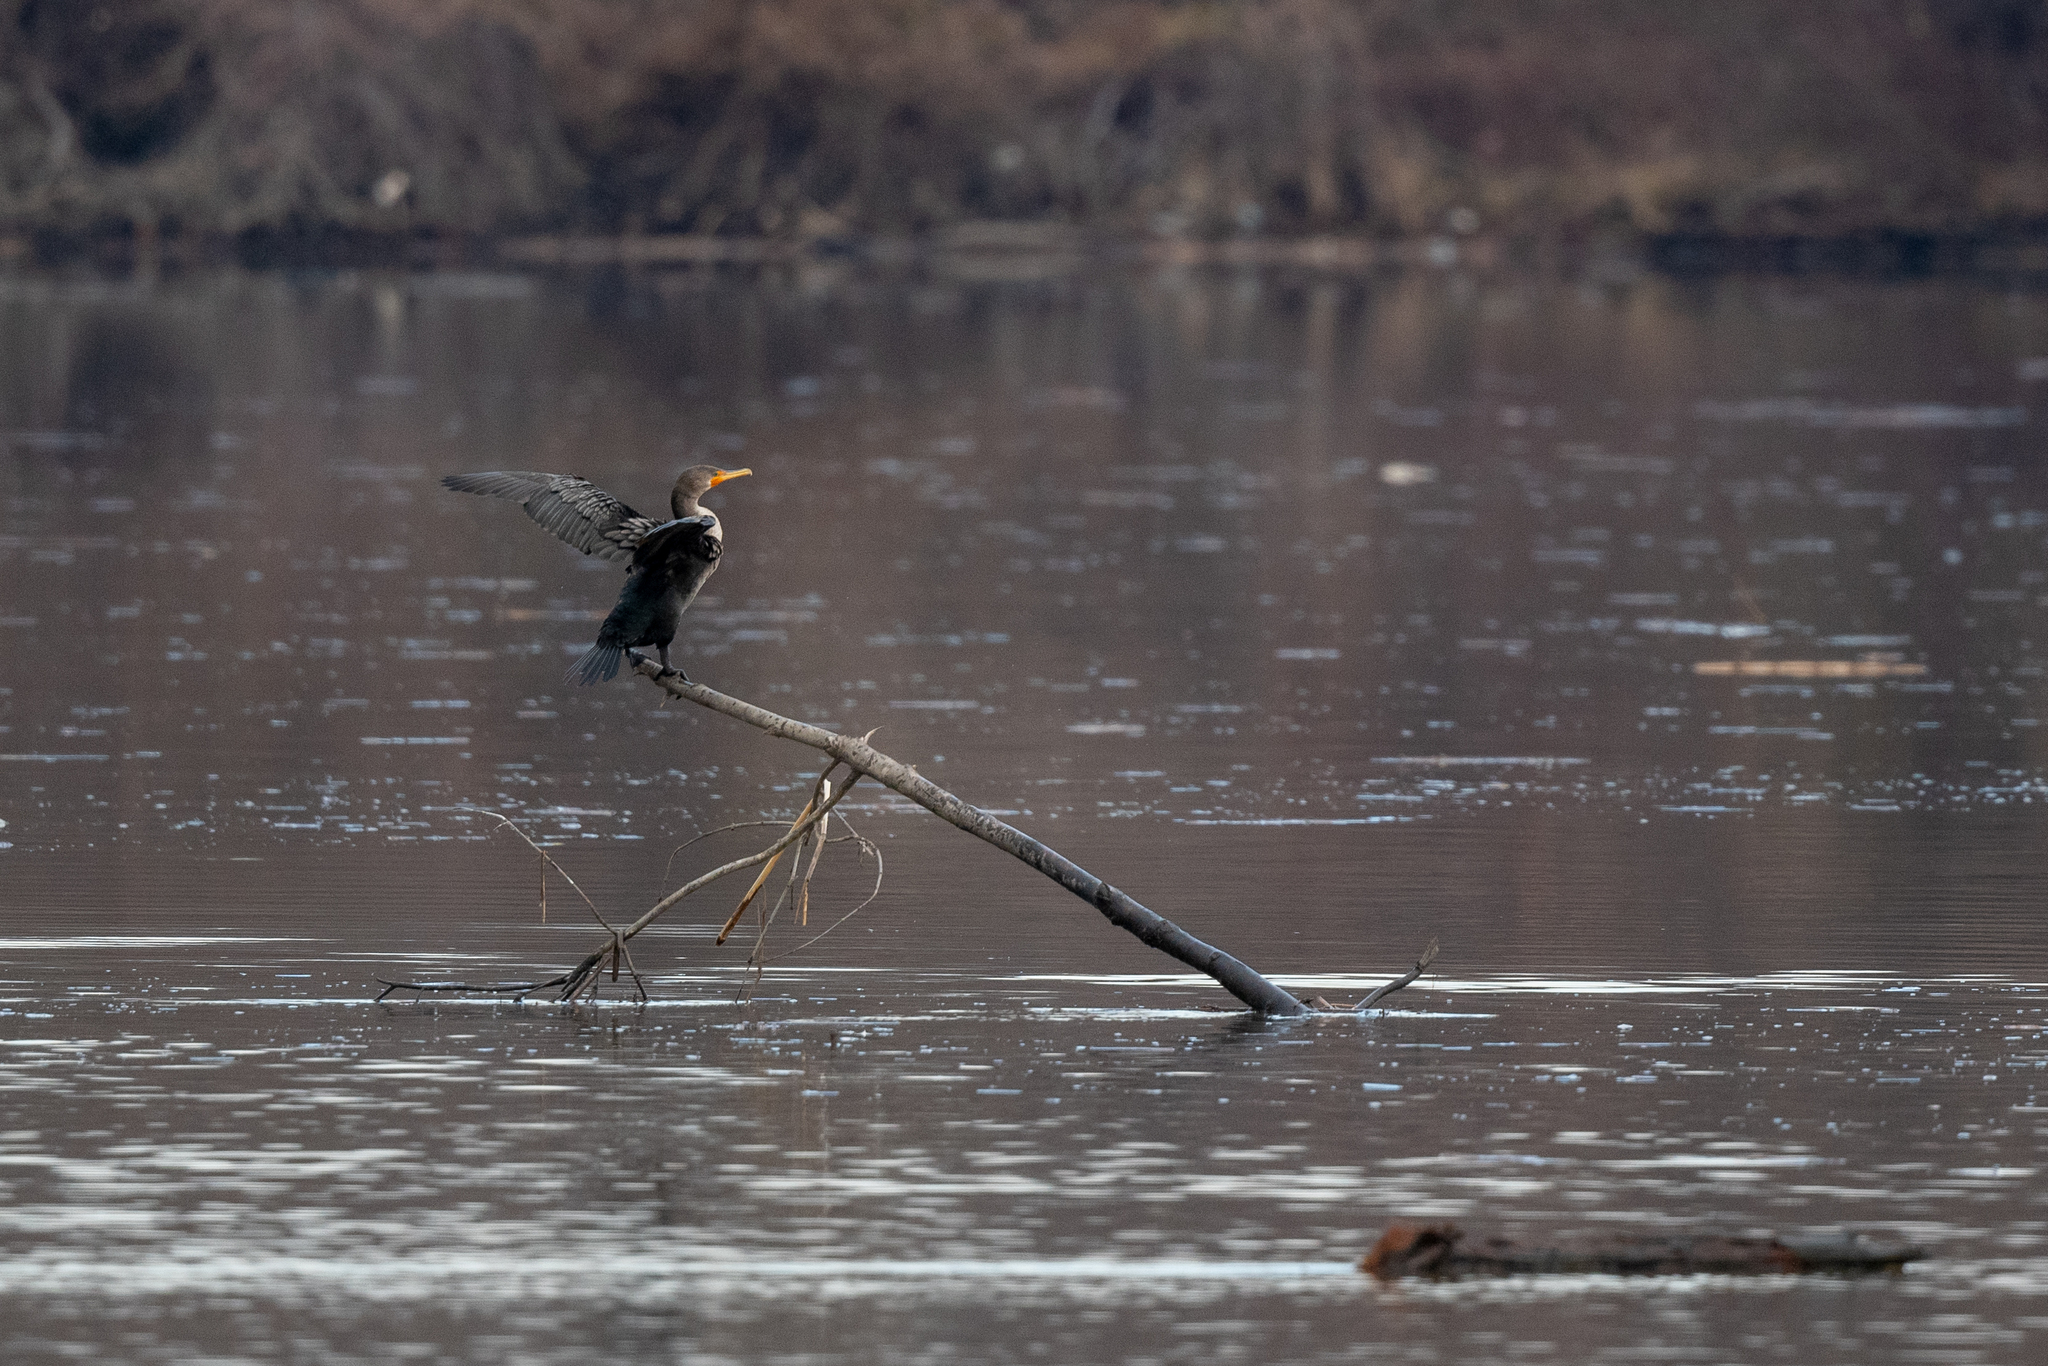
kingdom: Animalia
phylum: Chordata
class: Aves
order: Suliformes
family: Phalacrocoracidae
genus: Phalacrocorax
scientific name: Phalacrocorax auritus
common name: Double-crested cormorant
